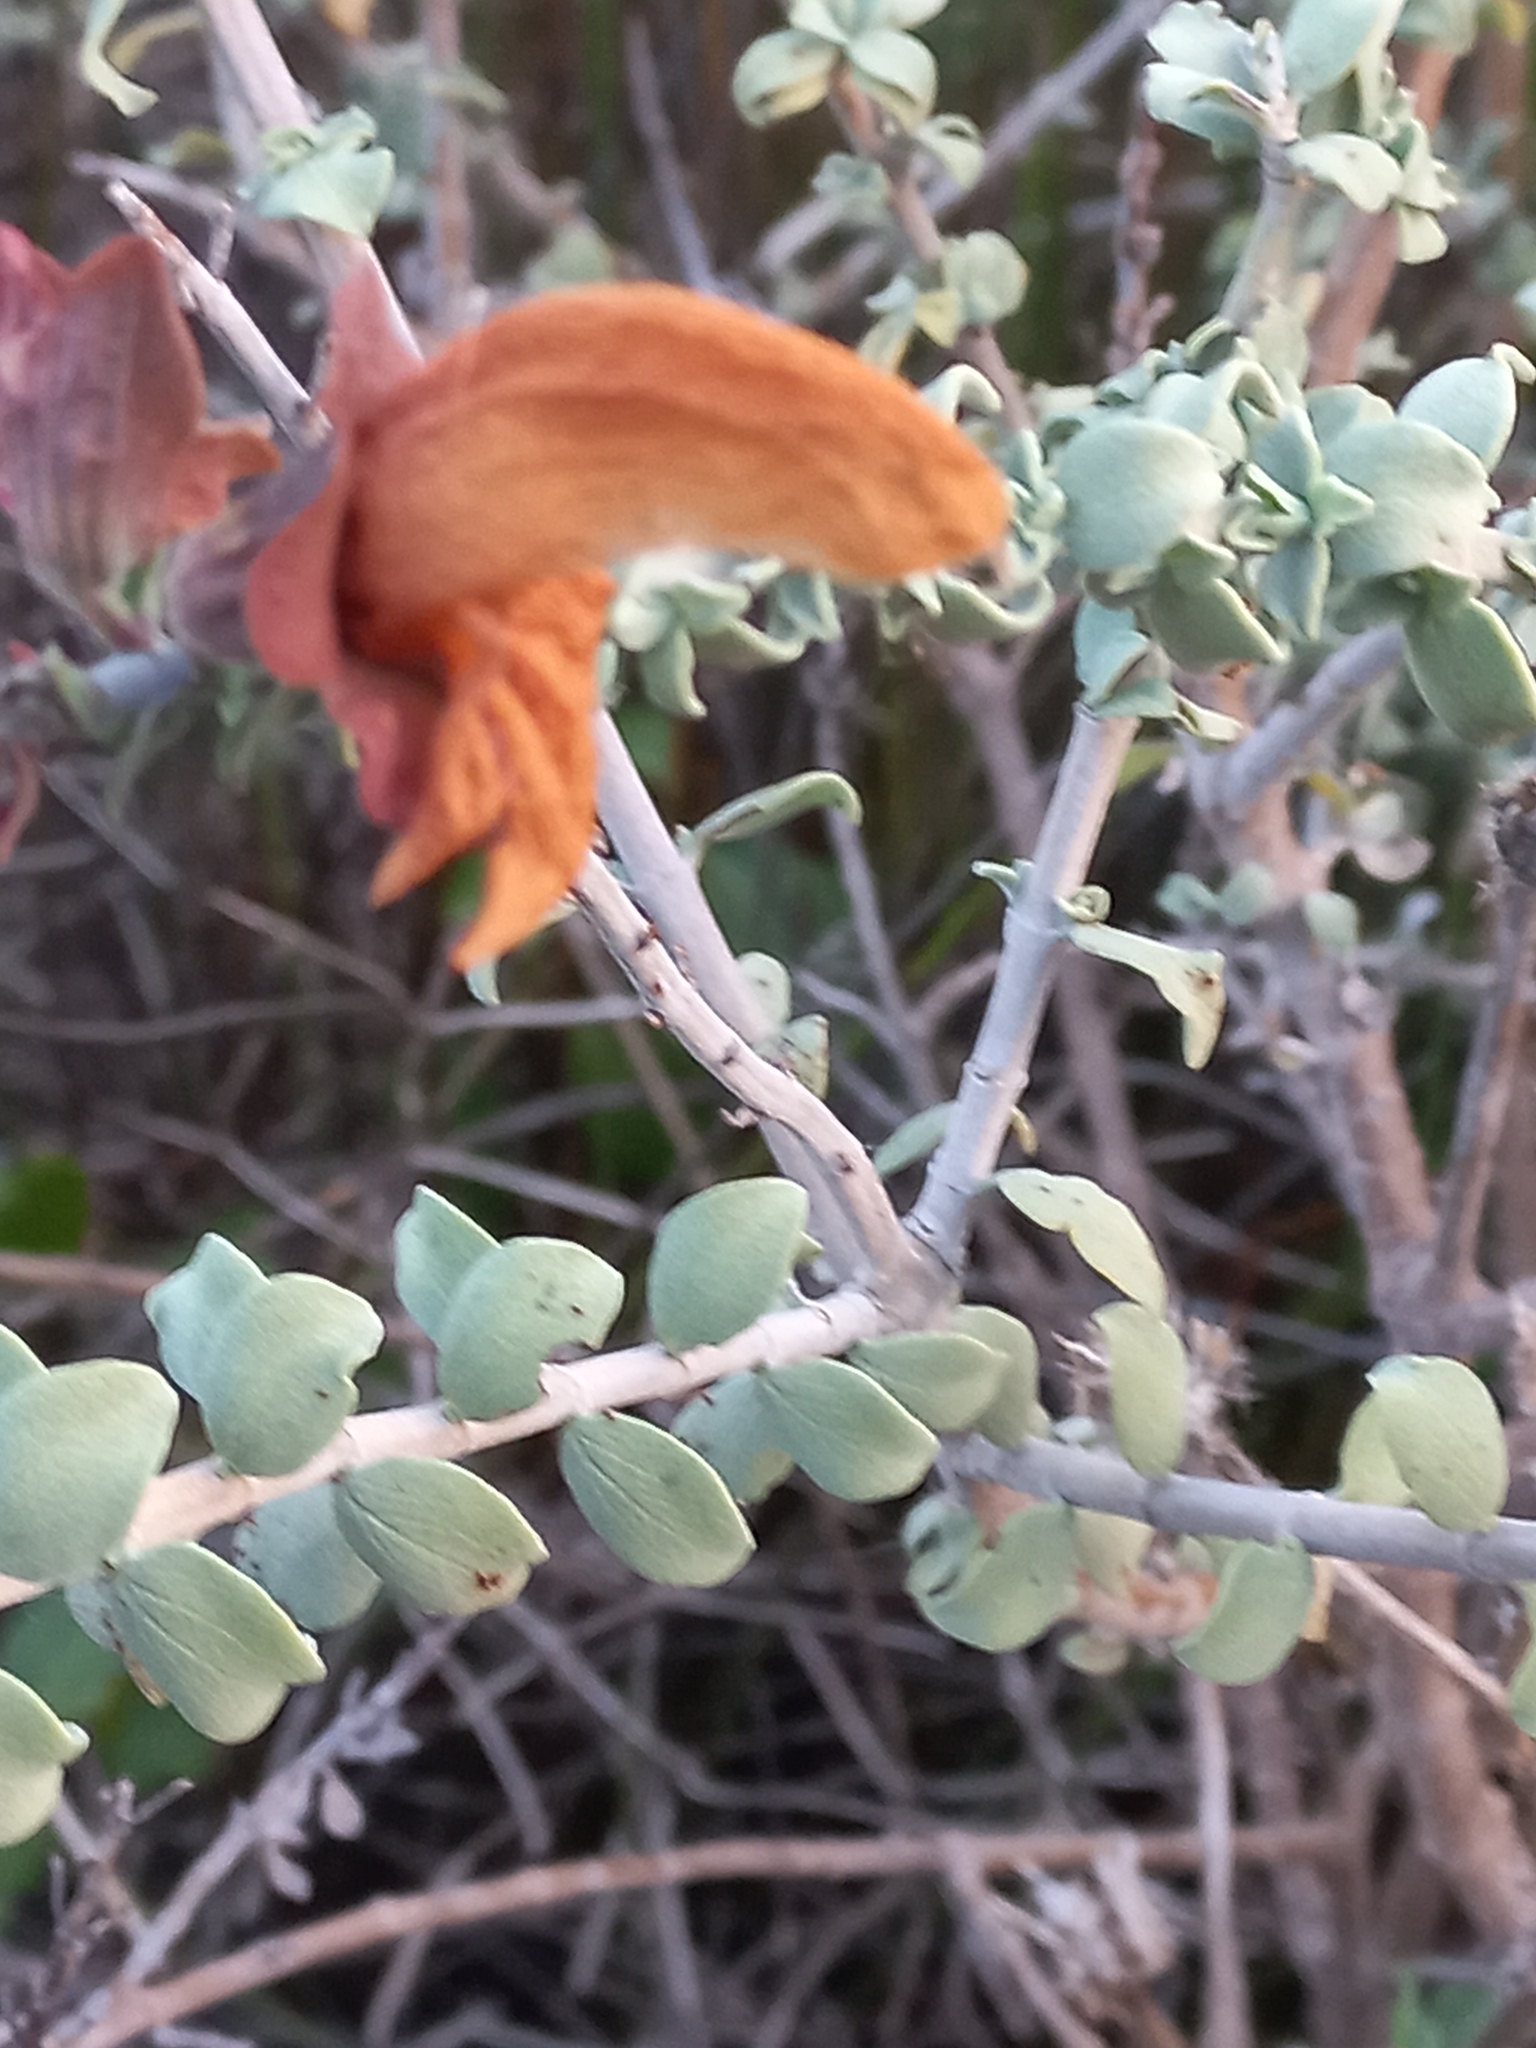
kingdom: Plantae
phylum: Tracheophyta
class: Magnoliopsida
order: Lamiales
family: Lamiaceae
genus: Salvia
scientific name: Salvia aurea
